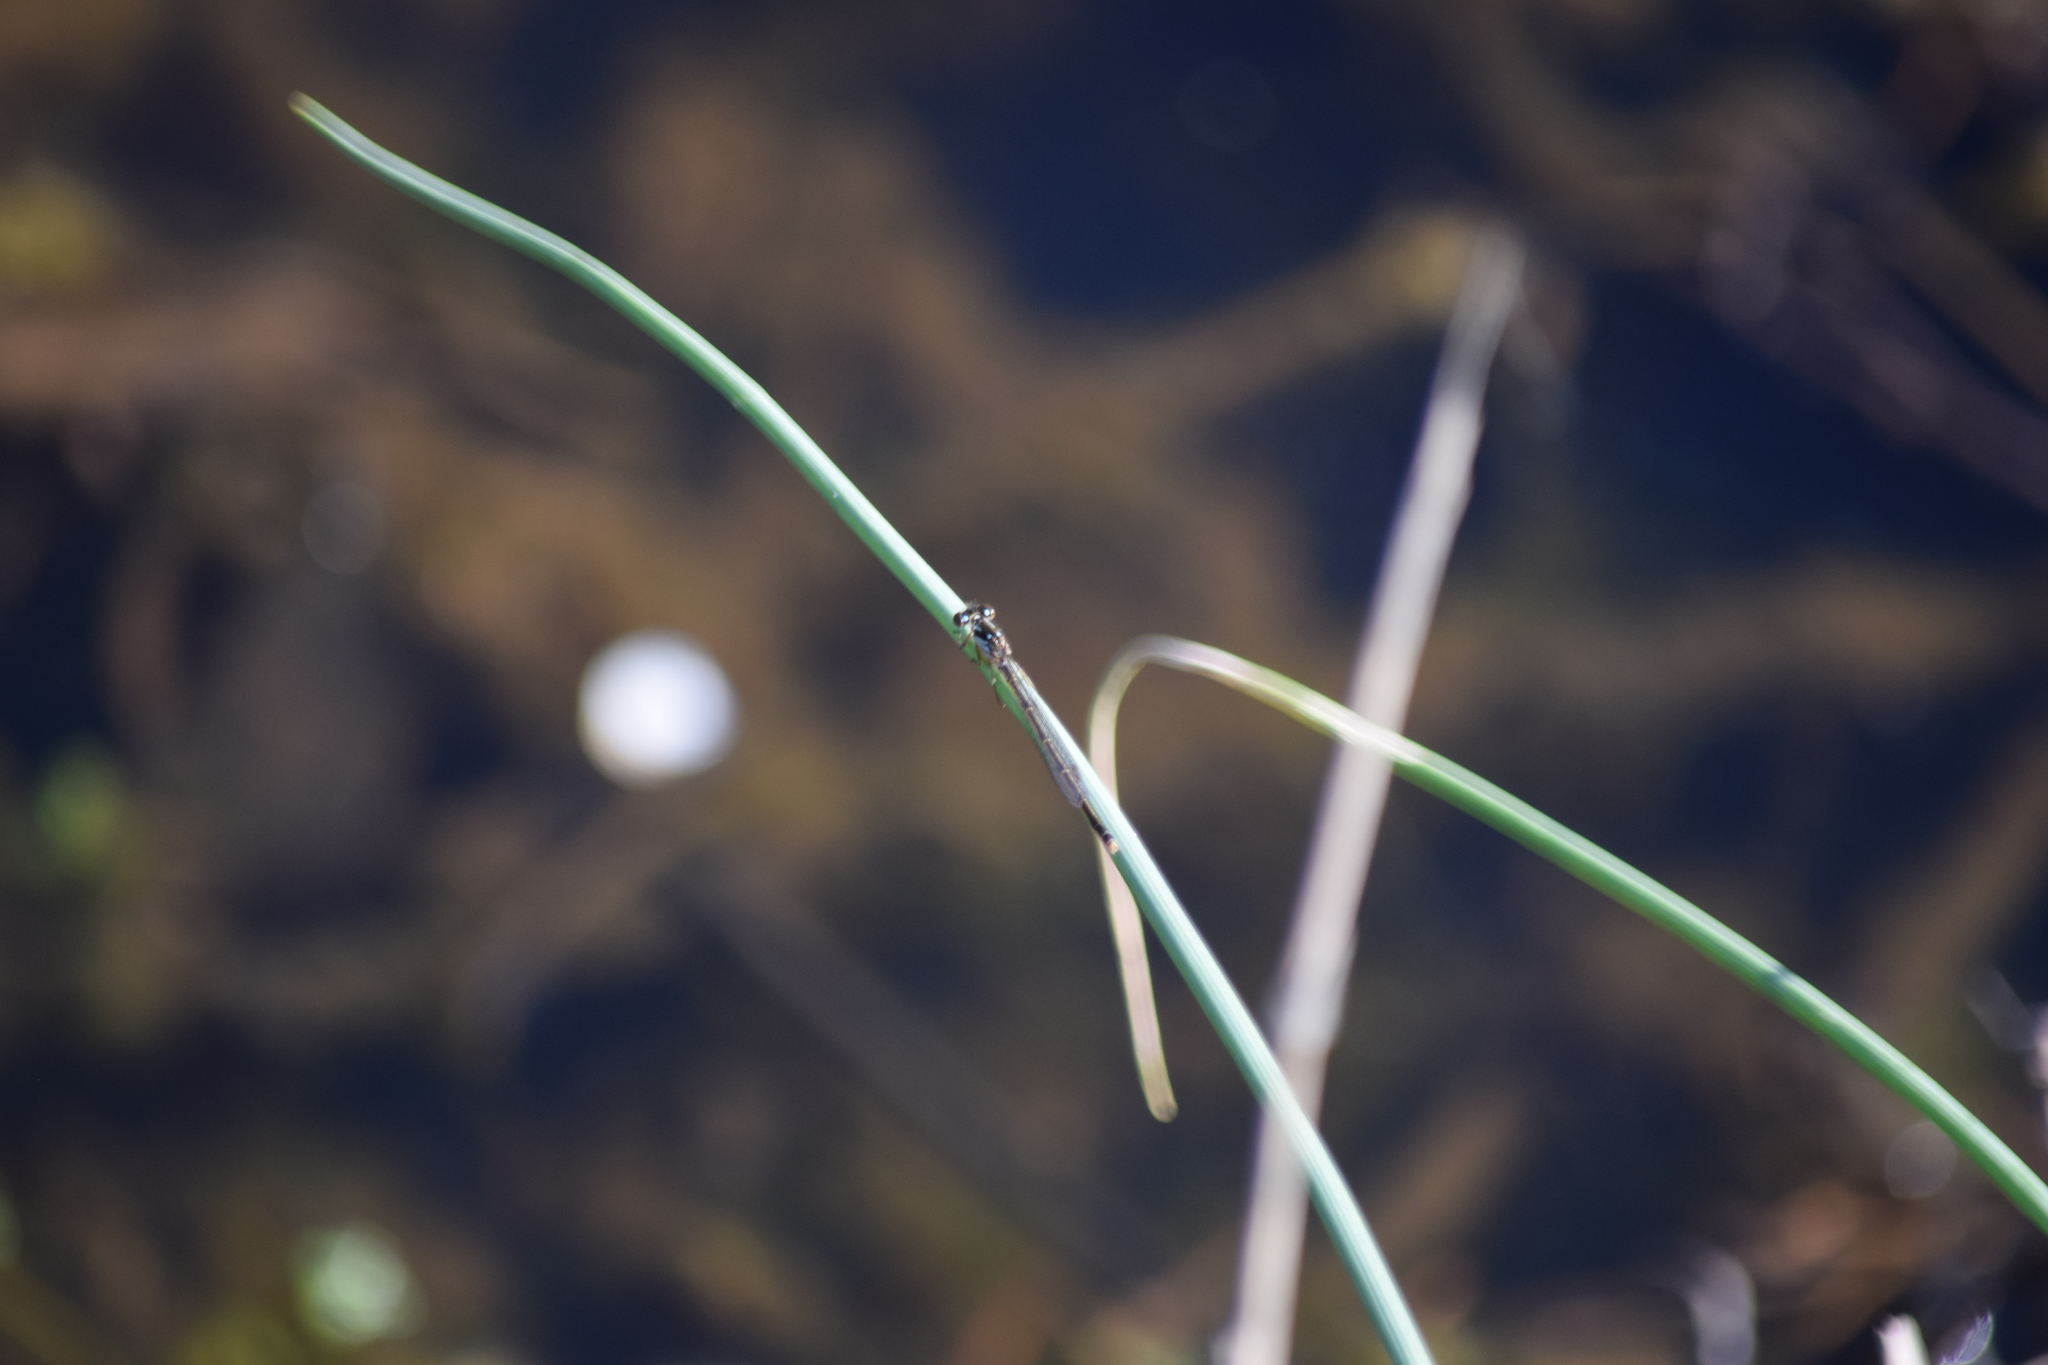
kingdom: Animalia
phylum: Arthropoda
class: Insecta
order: Odonata
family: Coenagrionidae
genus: Ischnura
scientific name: Ischnura posita
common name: Fragile forktail
